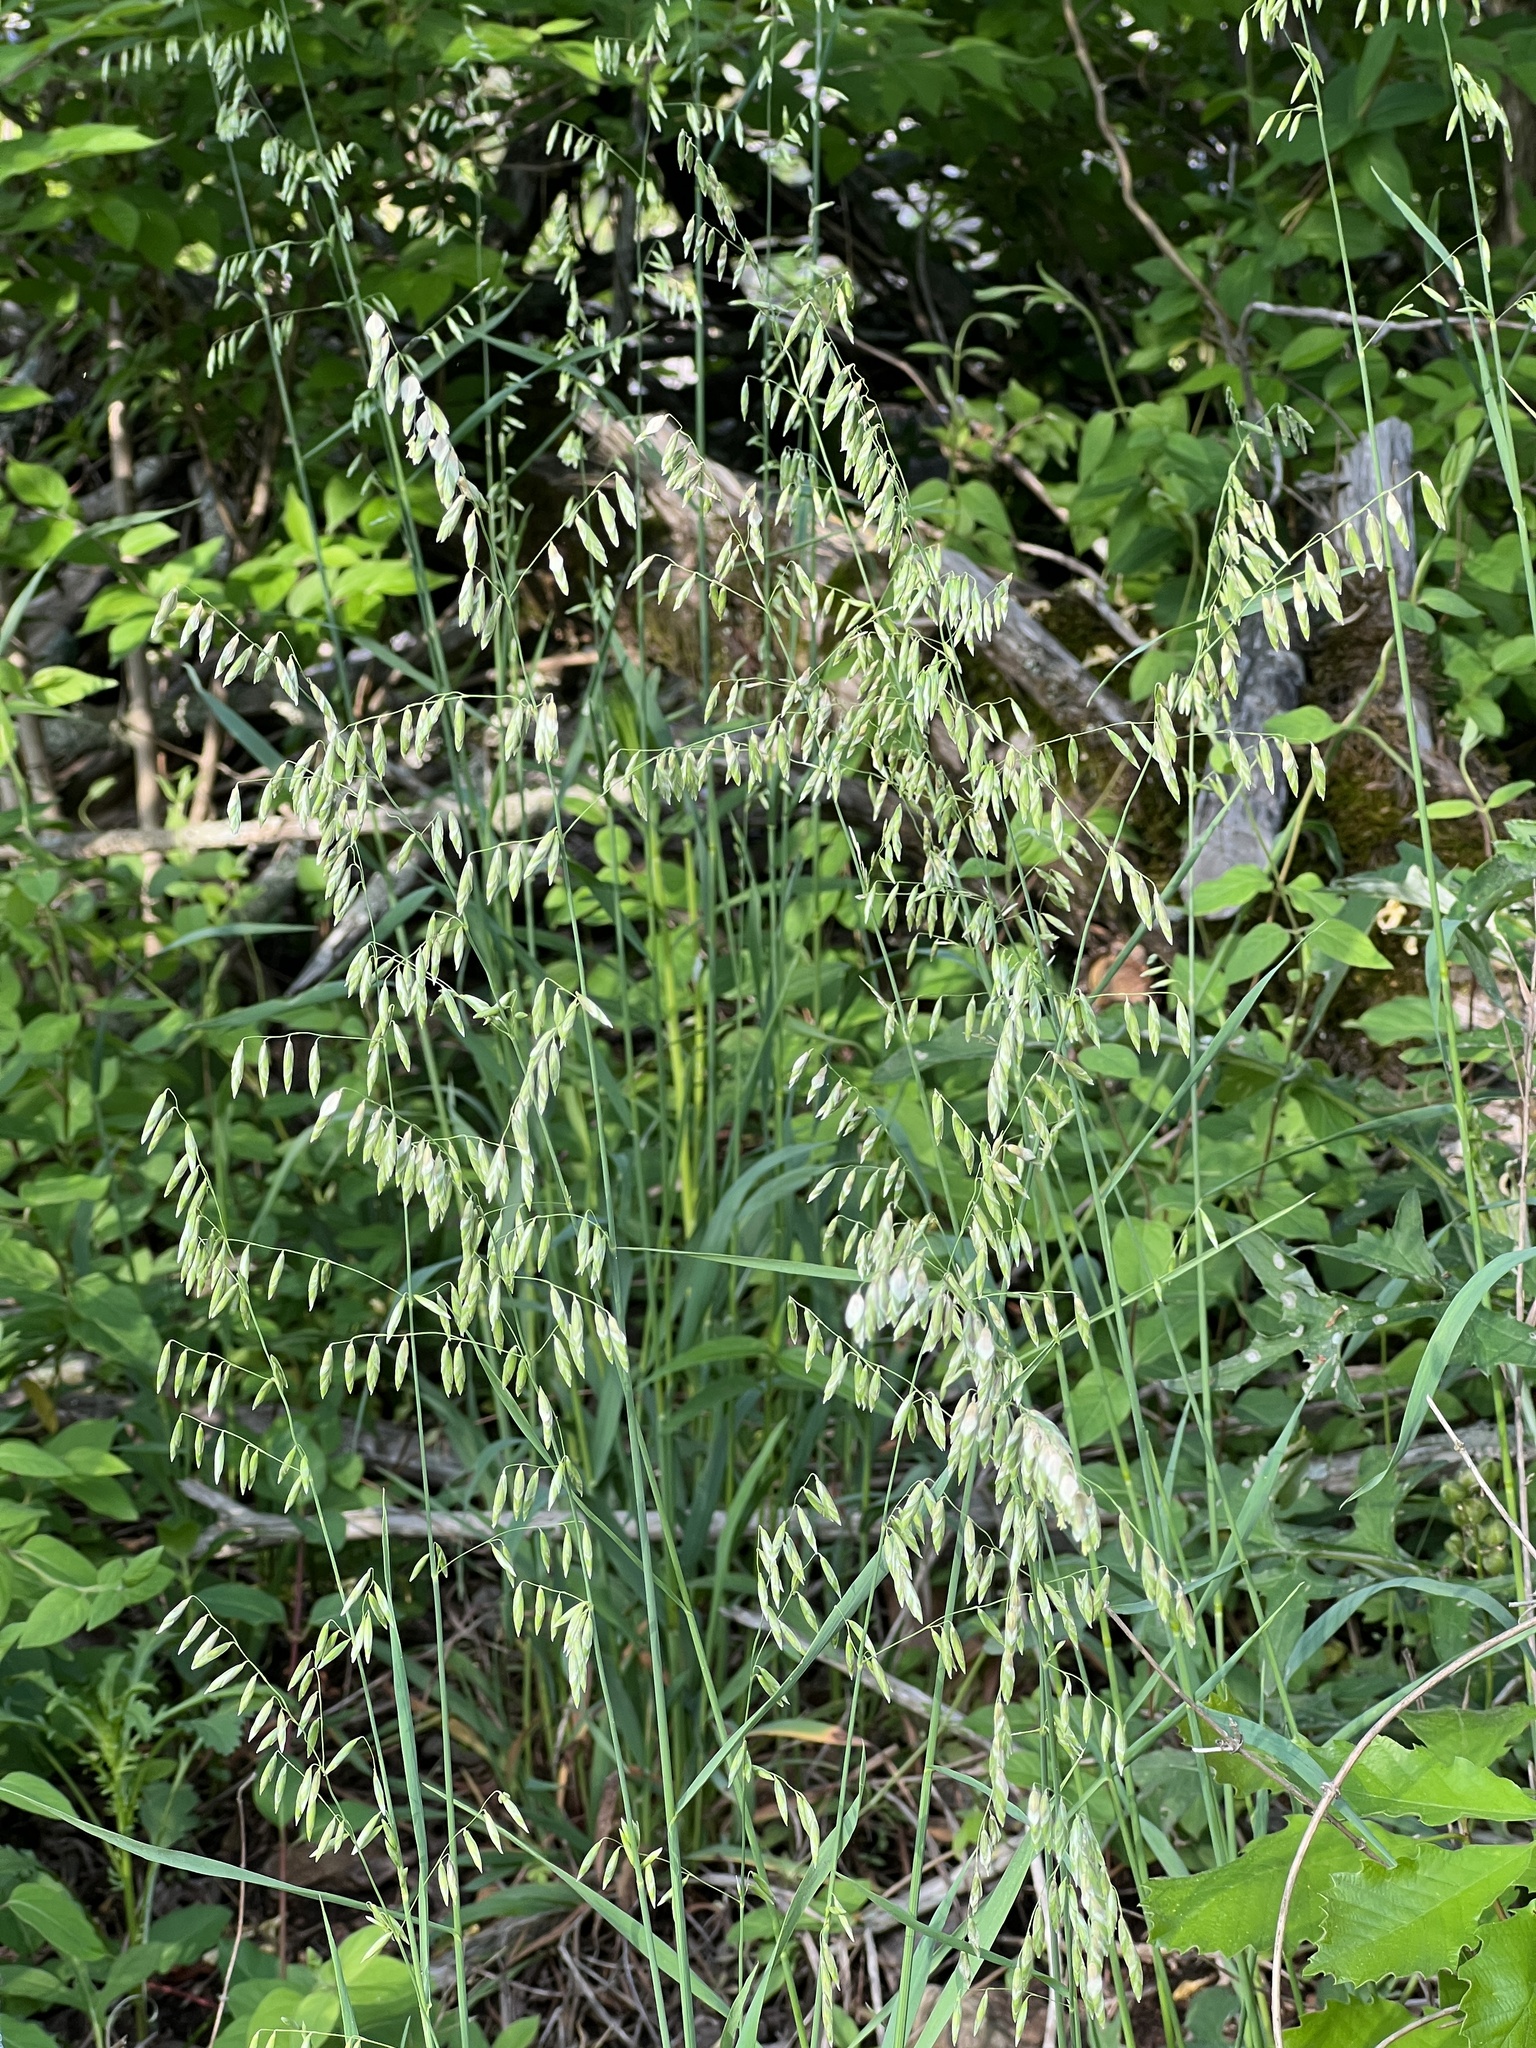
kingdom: Plantae
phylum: Tracheophyta
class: Liliopsida
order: Poales
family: Poaceae
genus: Melica
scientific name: Melica nitens
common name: Three-flower melic
